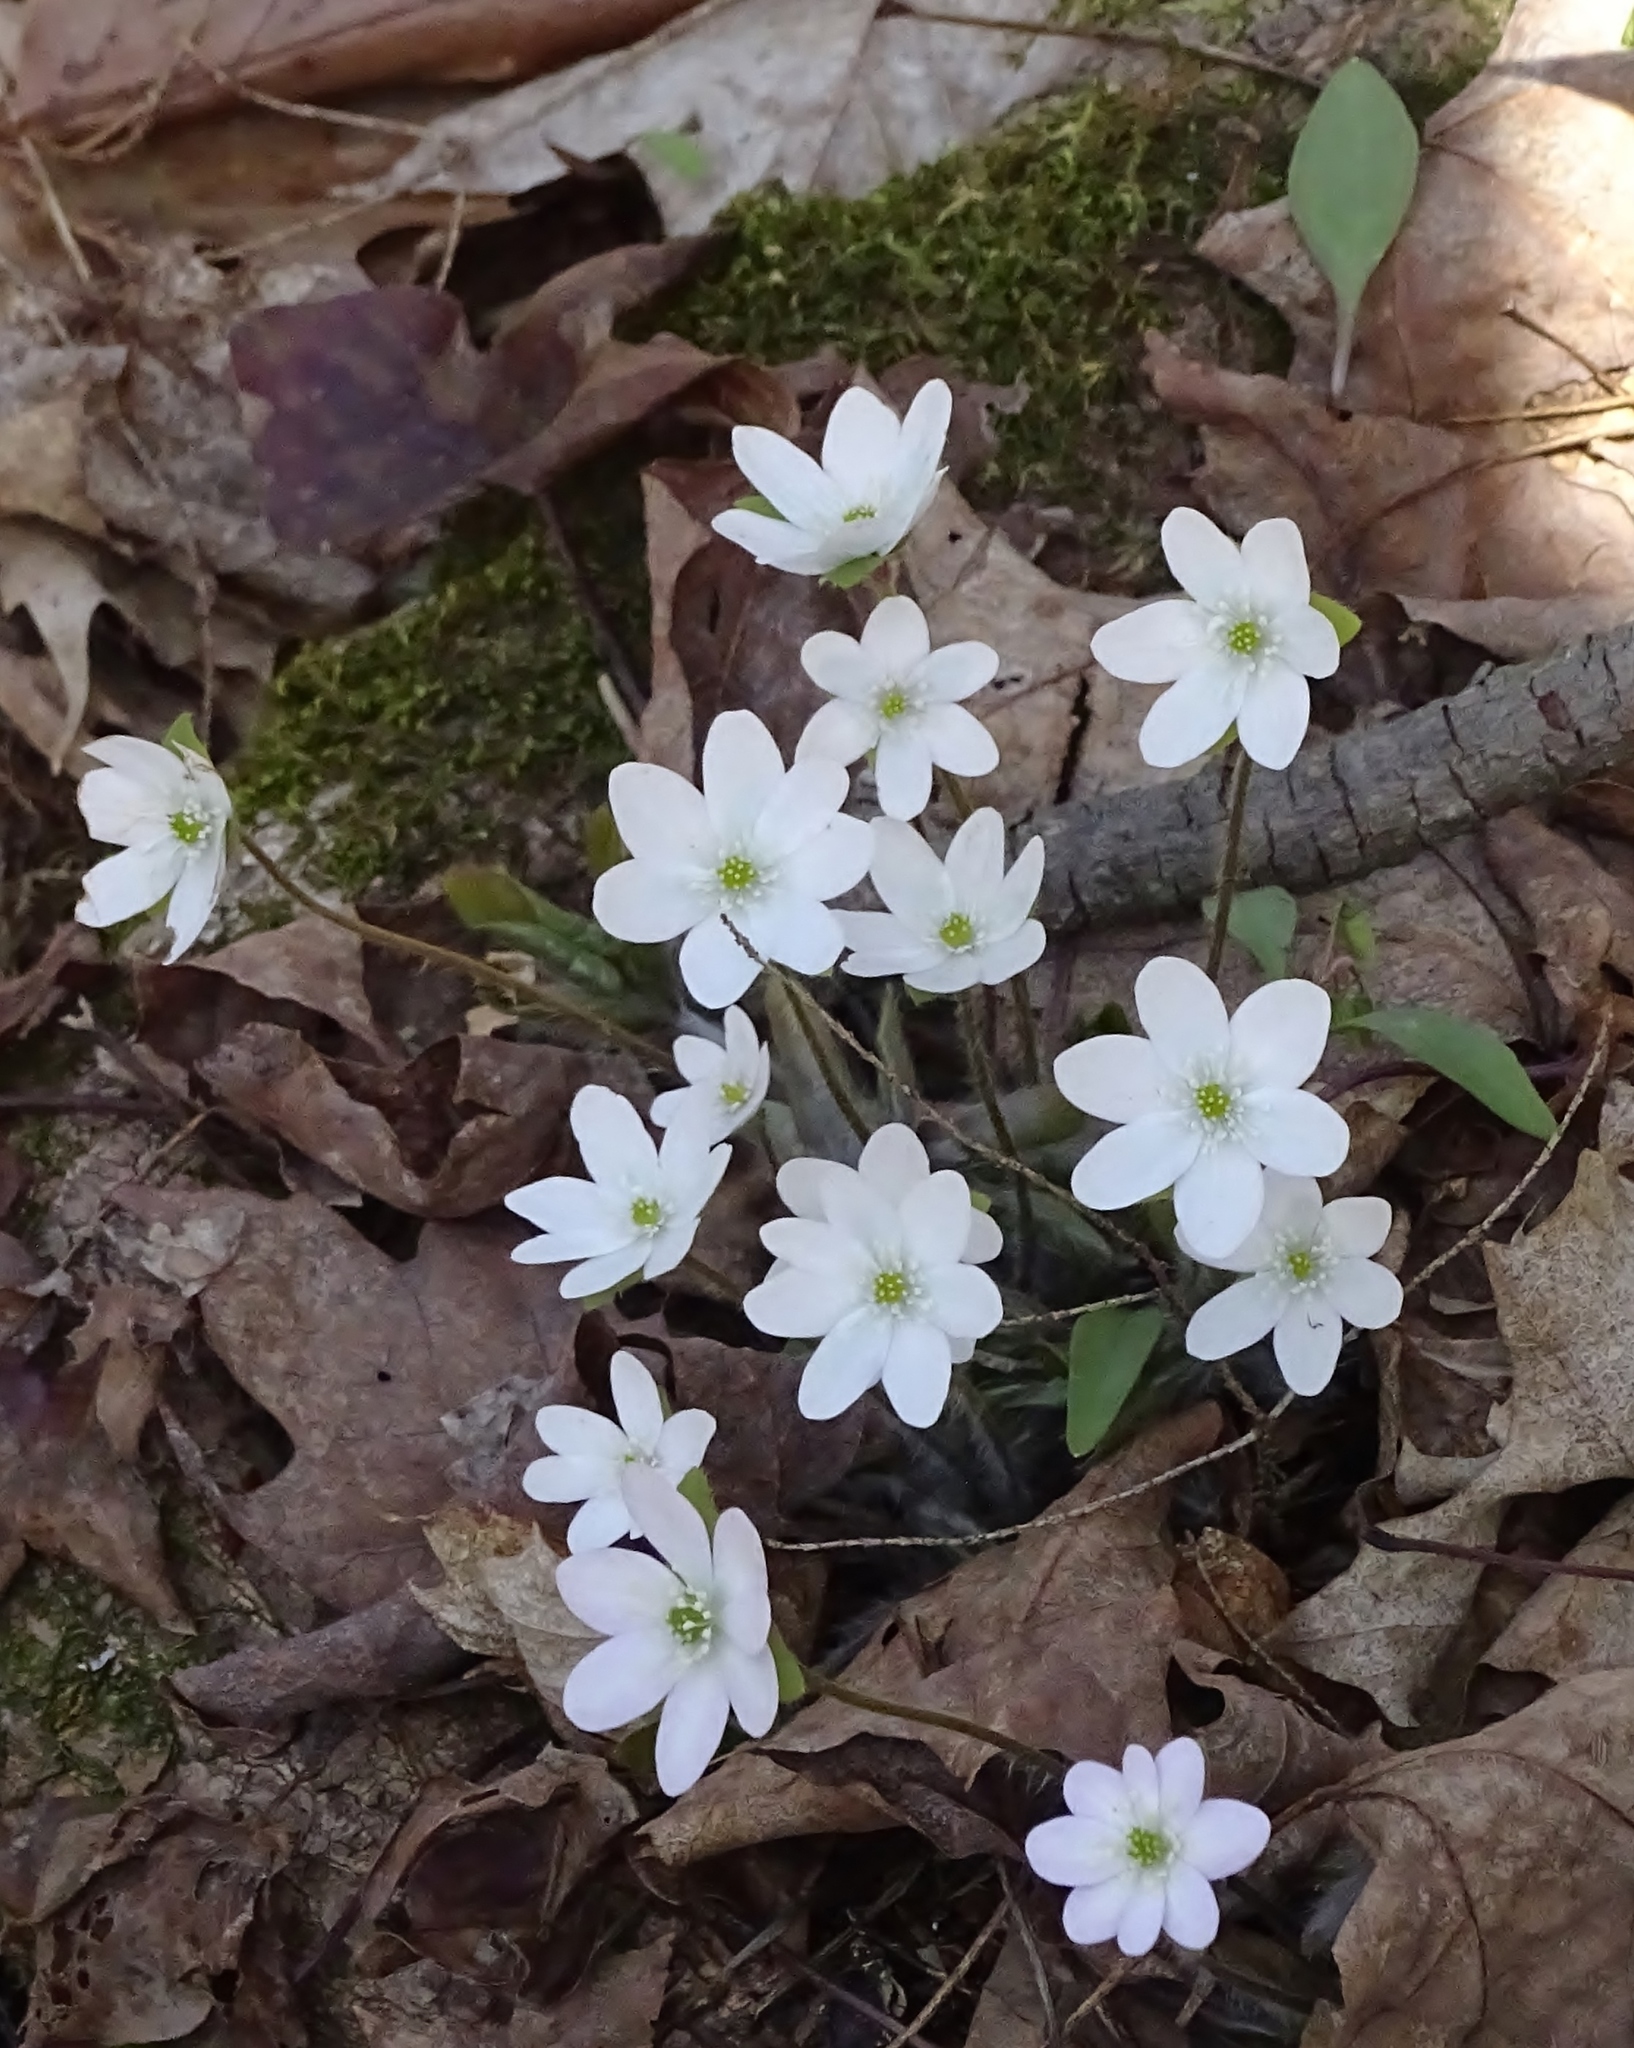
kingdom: Plantae
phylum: Tracheophyta
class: Magnoliopsida
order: Ranunculales
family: Ranunculaceae
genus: Hepatica
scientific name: Hepatica americana
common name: American hepatica
